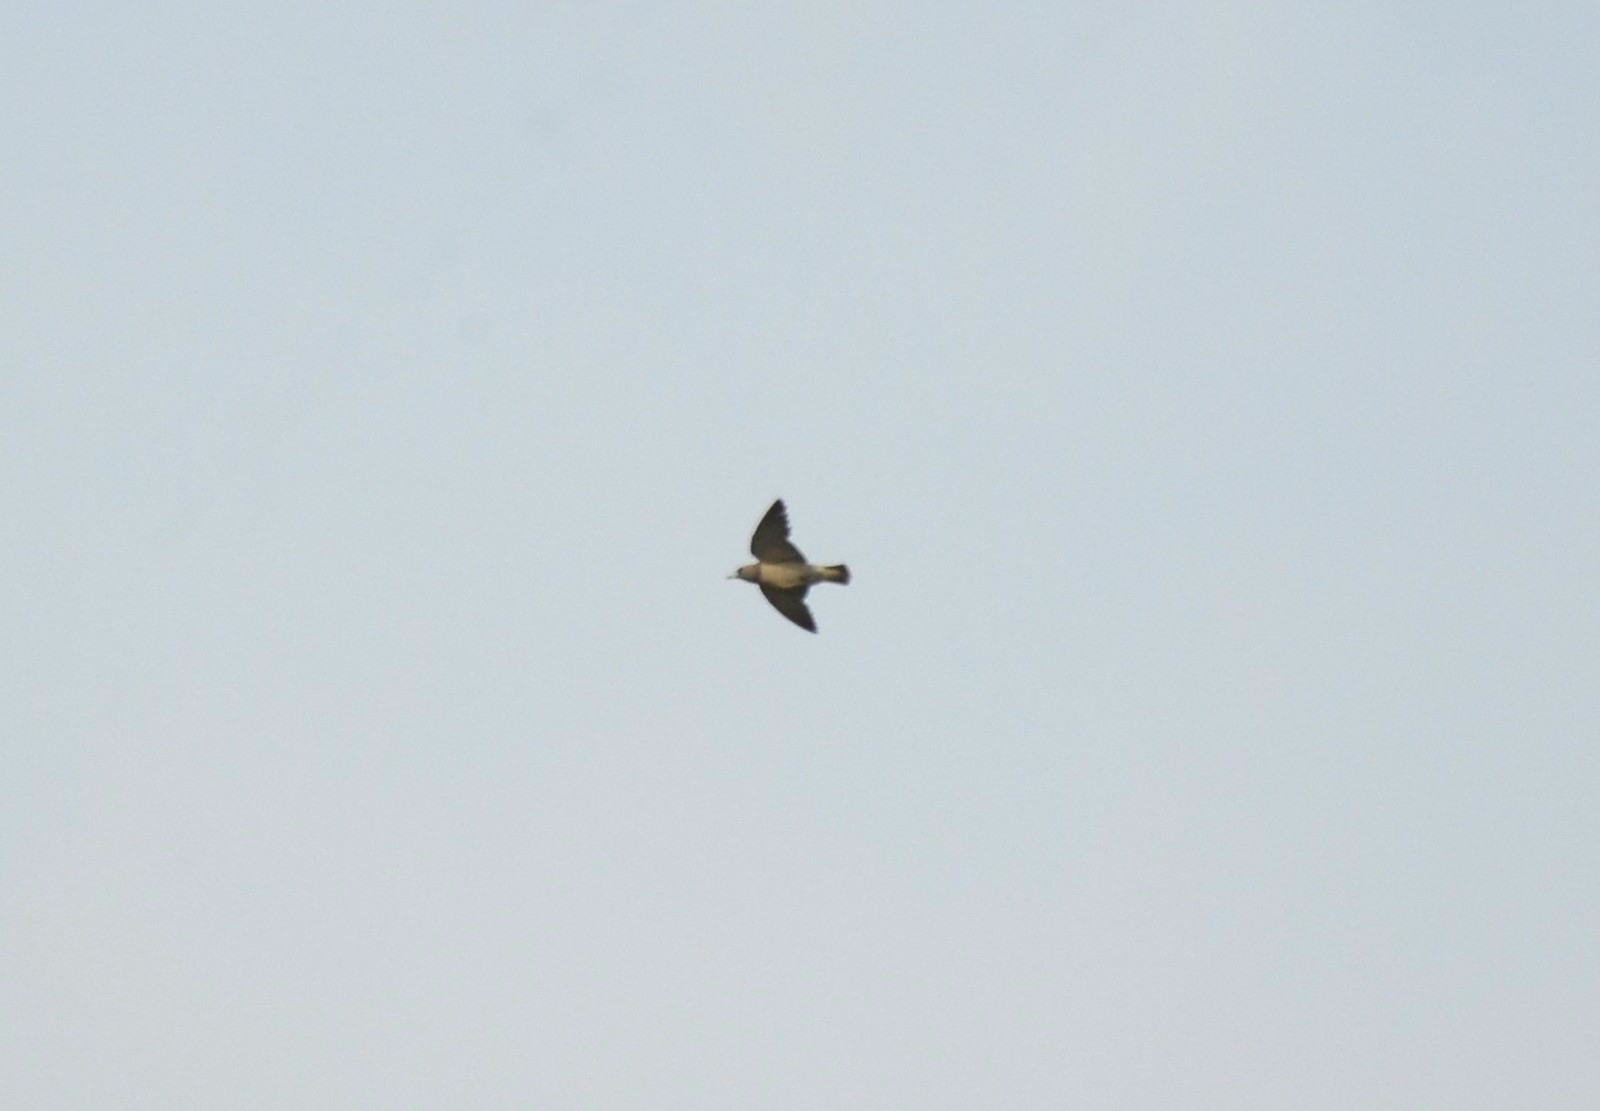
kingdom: Animalia
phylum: Chordata
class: Aves
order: Passeriformes
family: Artamidae
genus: Artamus
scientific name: Artamus fuscus
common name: Ashy woodswallow
